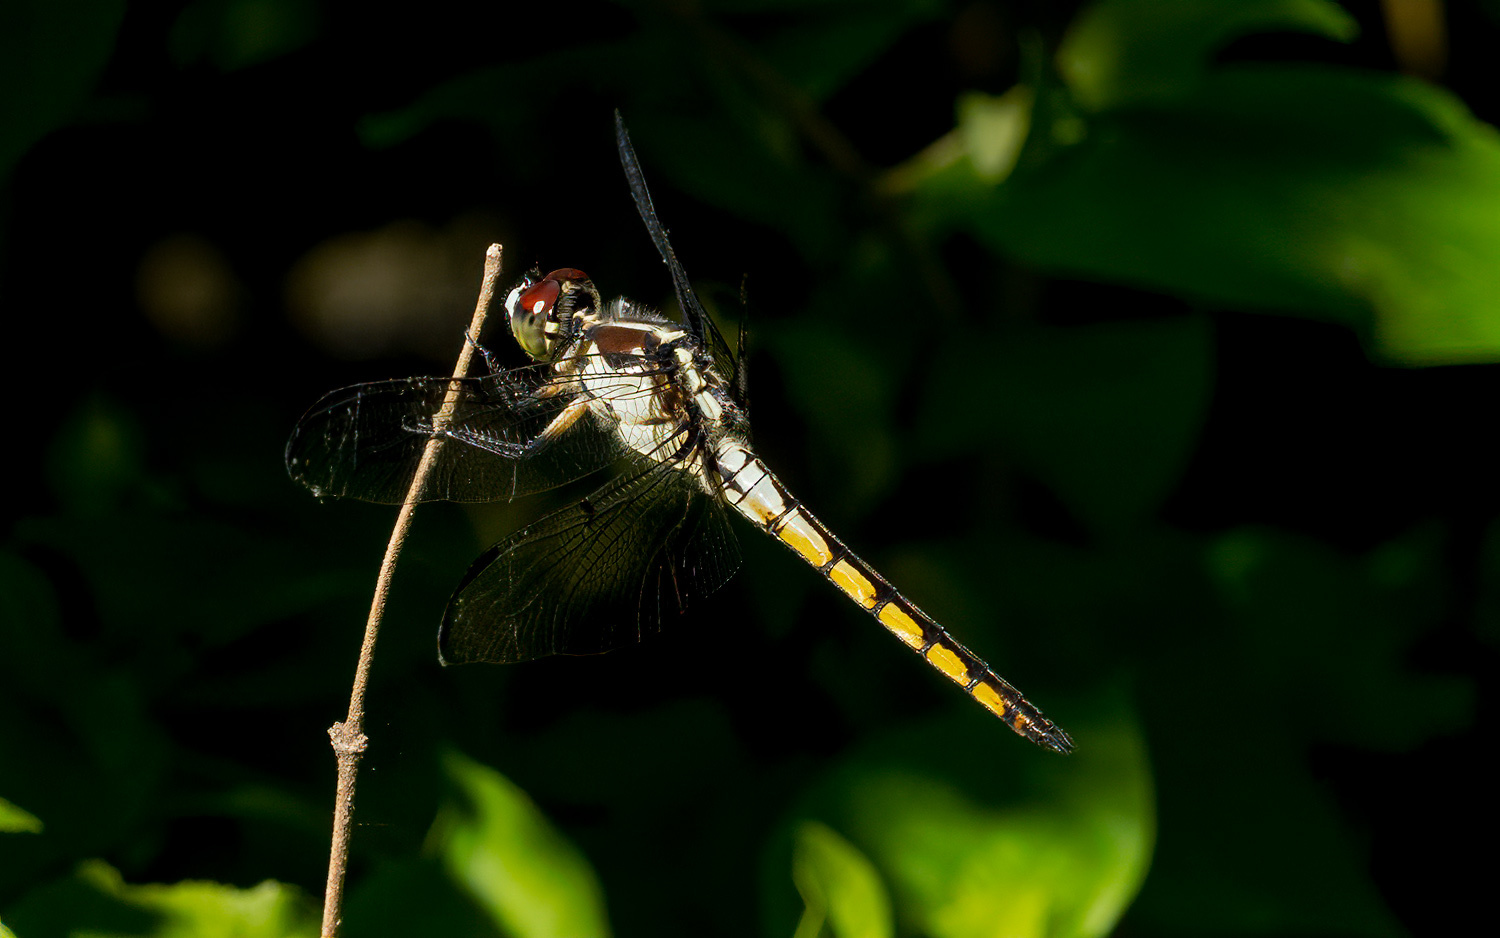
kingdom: Animalia
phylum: Arthropoda
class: Insecta
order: Odonata
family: Libellulidae
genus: Libellula
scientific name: Libellula vibrans
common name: Great blue skimmer
